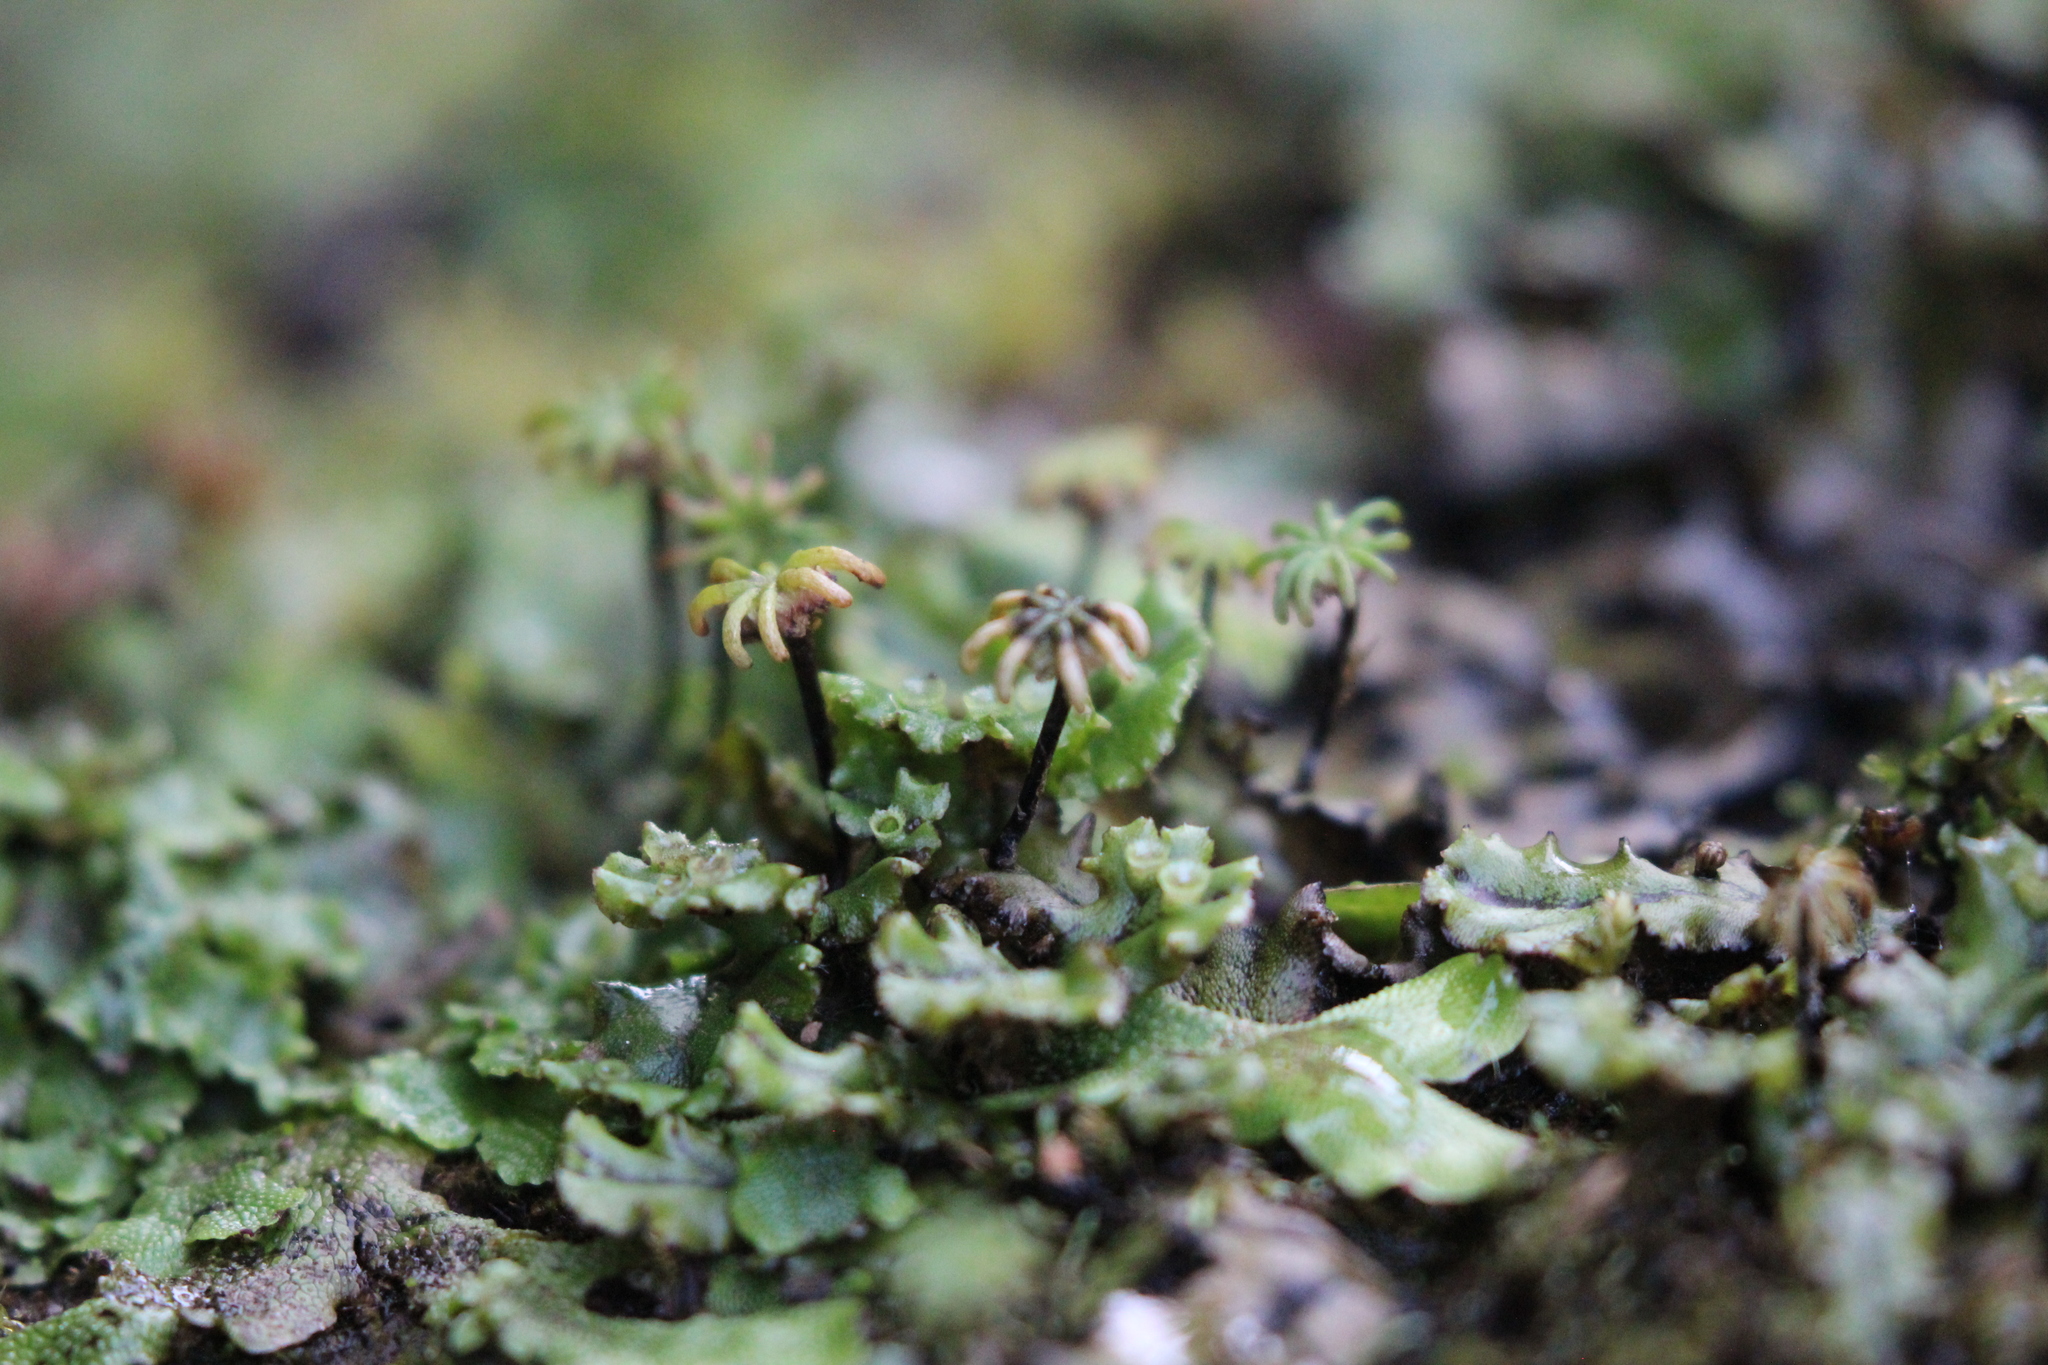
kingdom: Plantae
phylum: Marchantiophyta
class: Marchantiopsida
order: Marchantiales
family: Marchantiaceae
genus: Marchantia
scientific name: Marchantia polymorpha
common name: Common liverwort
